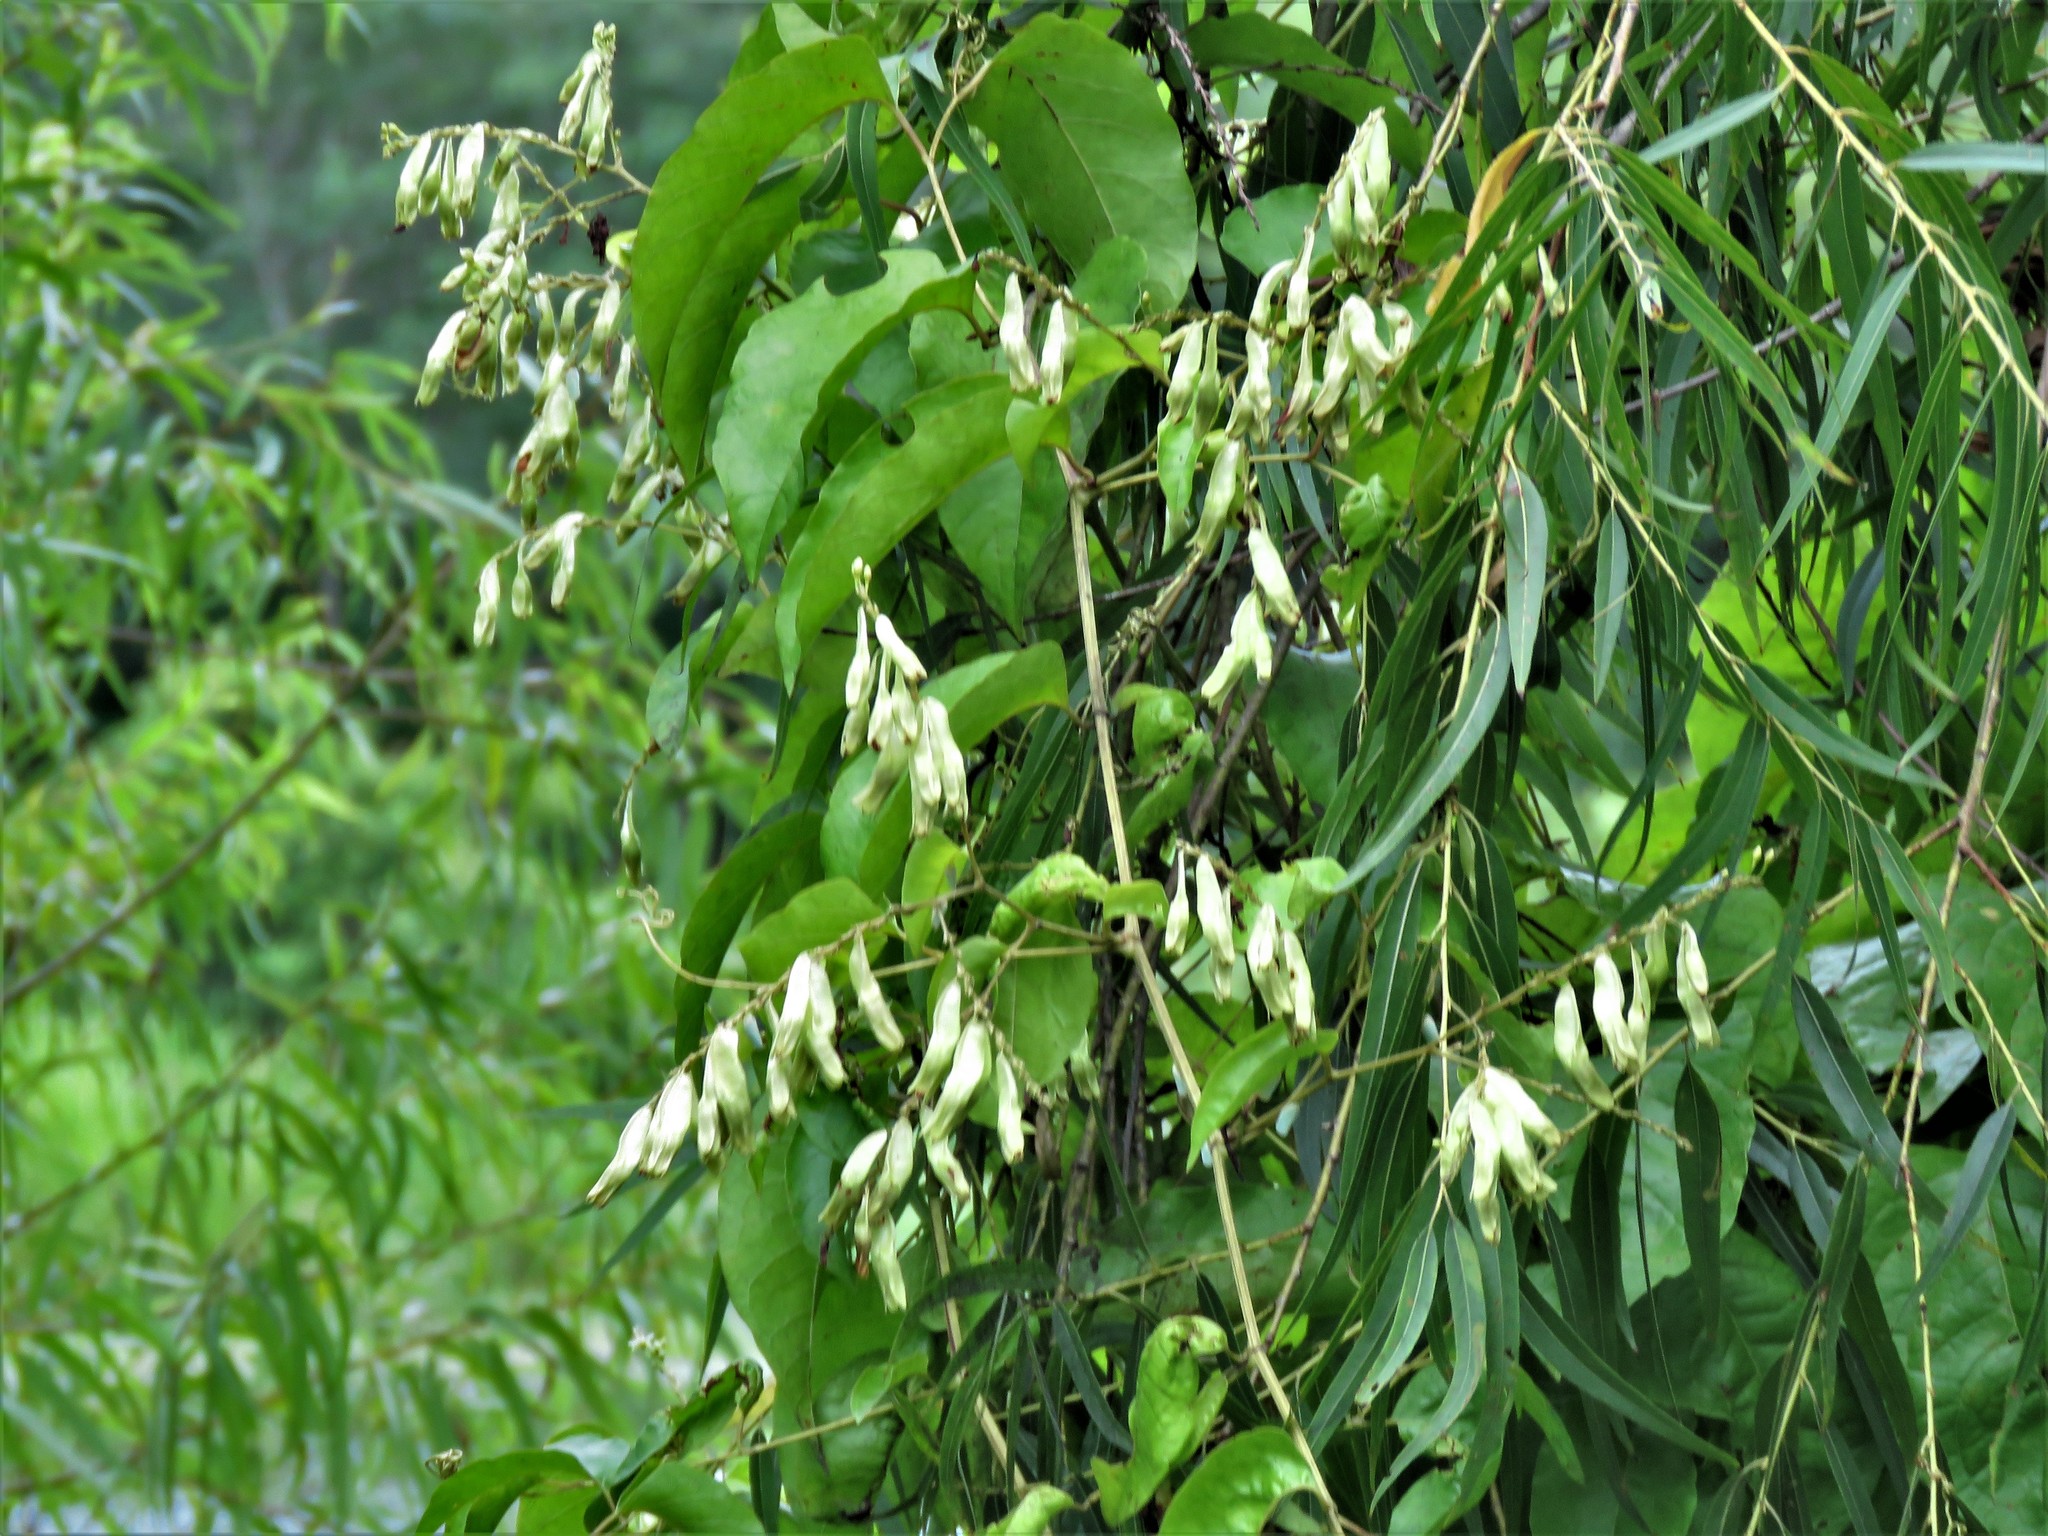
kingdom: Plantae
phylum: Tracheophyta
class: Magnoliopsida
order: Caryophyllales
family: Polygonaceae
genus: Brunnichia
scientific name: Brunnichia ovata
